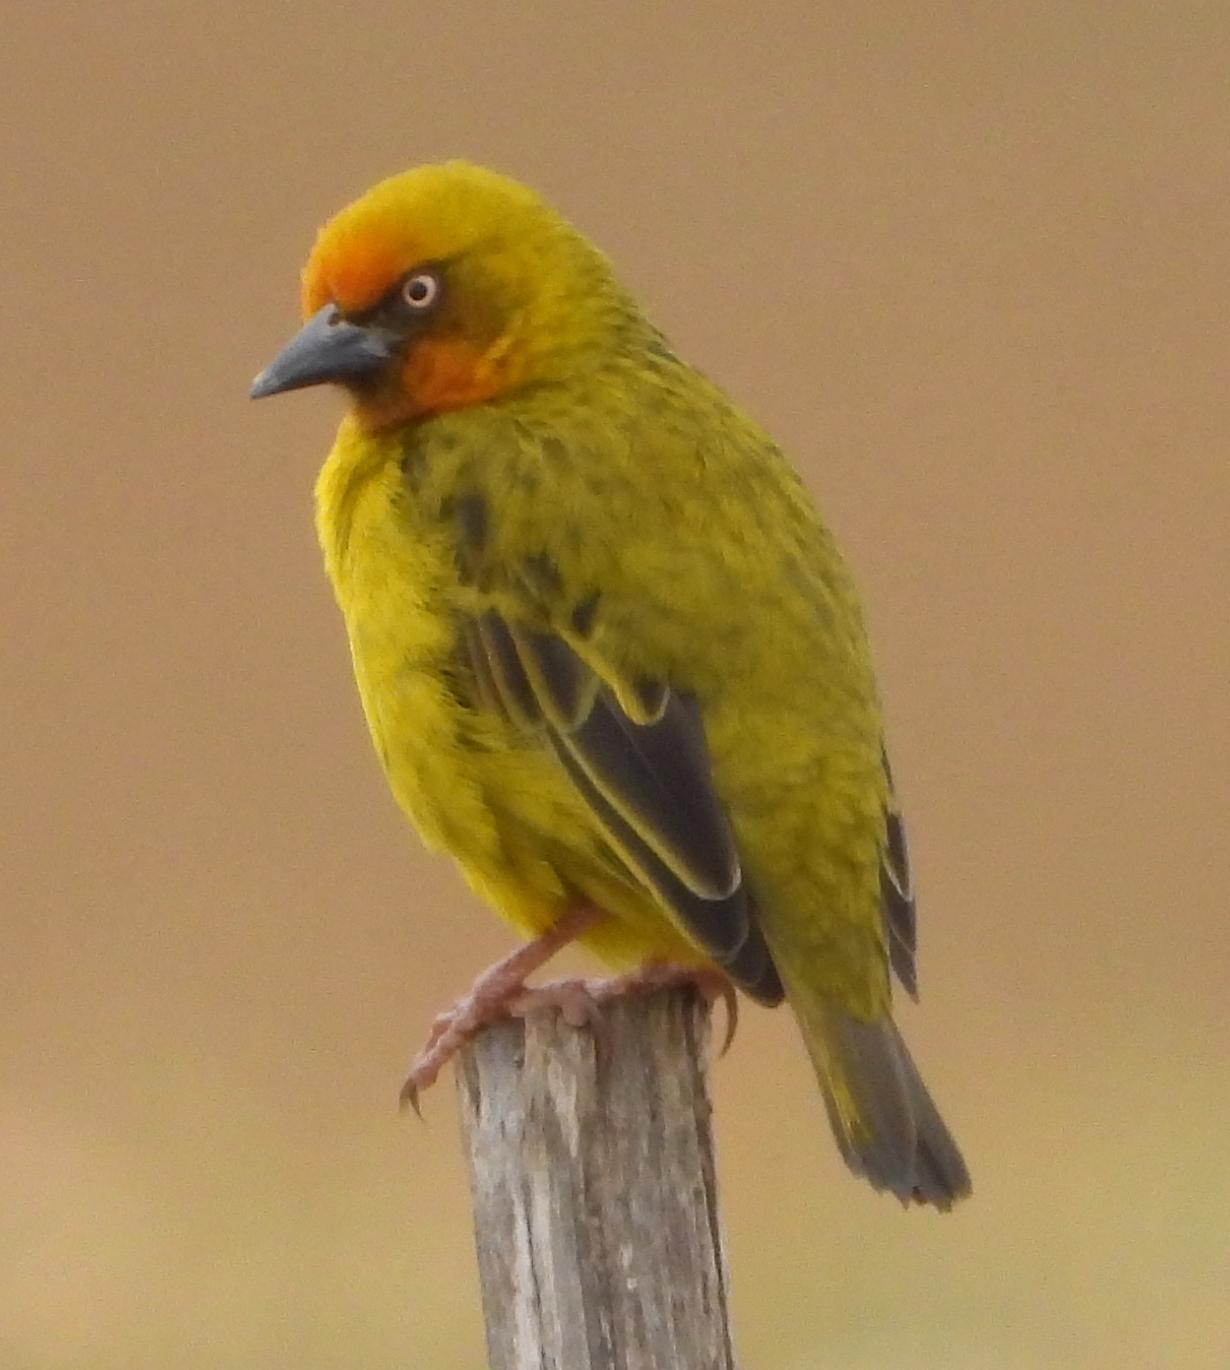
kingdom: Animalia
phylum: Chordata
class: Aves
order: Passeriformes
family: Ploceidae
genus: Ploceus
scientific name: Ploceus capensis
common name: Cape weaver
